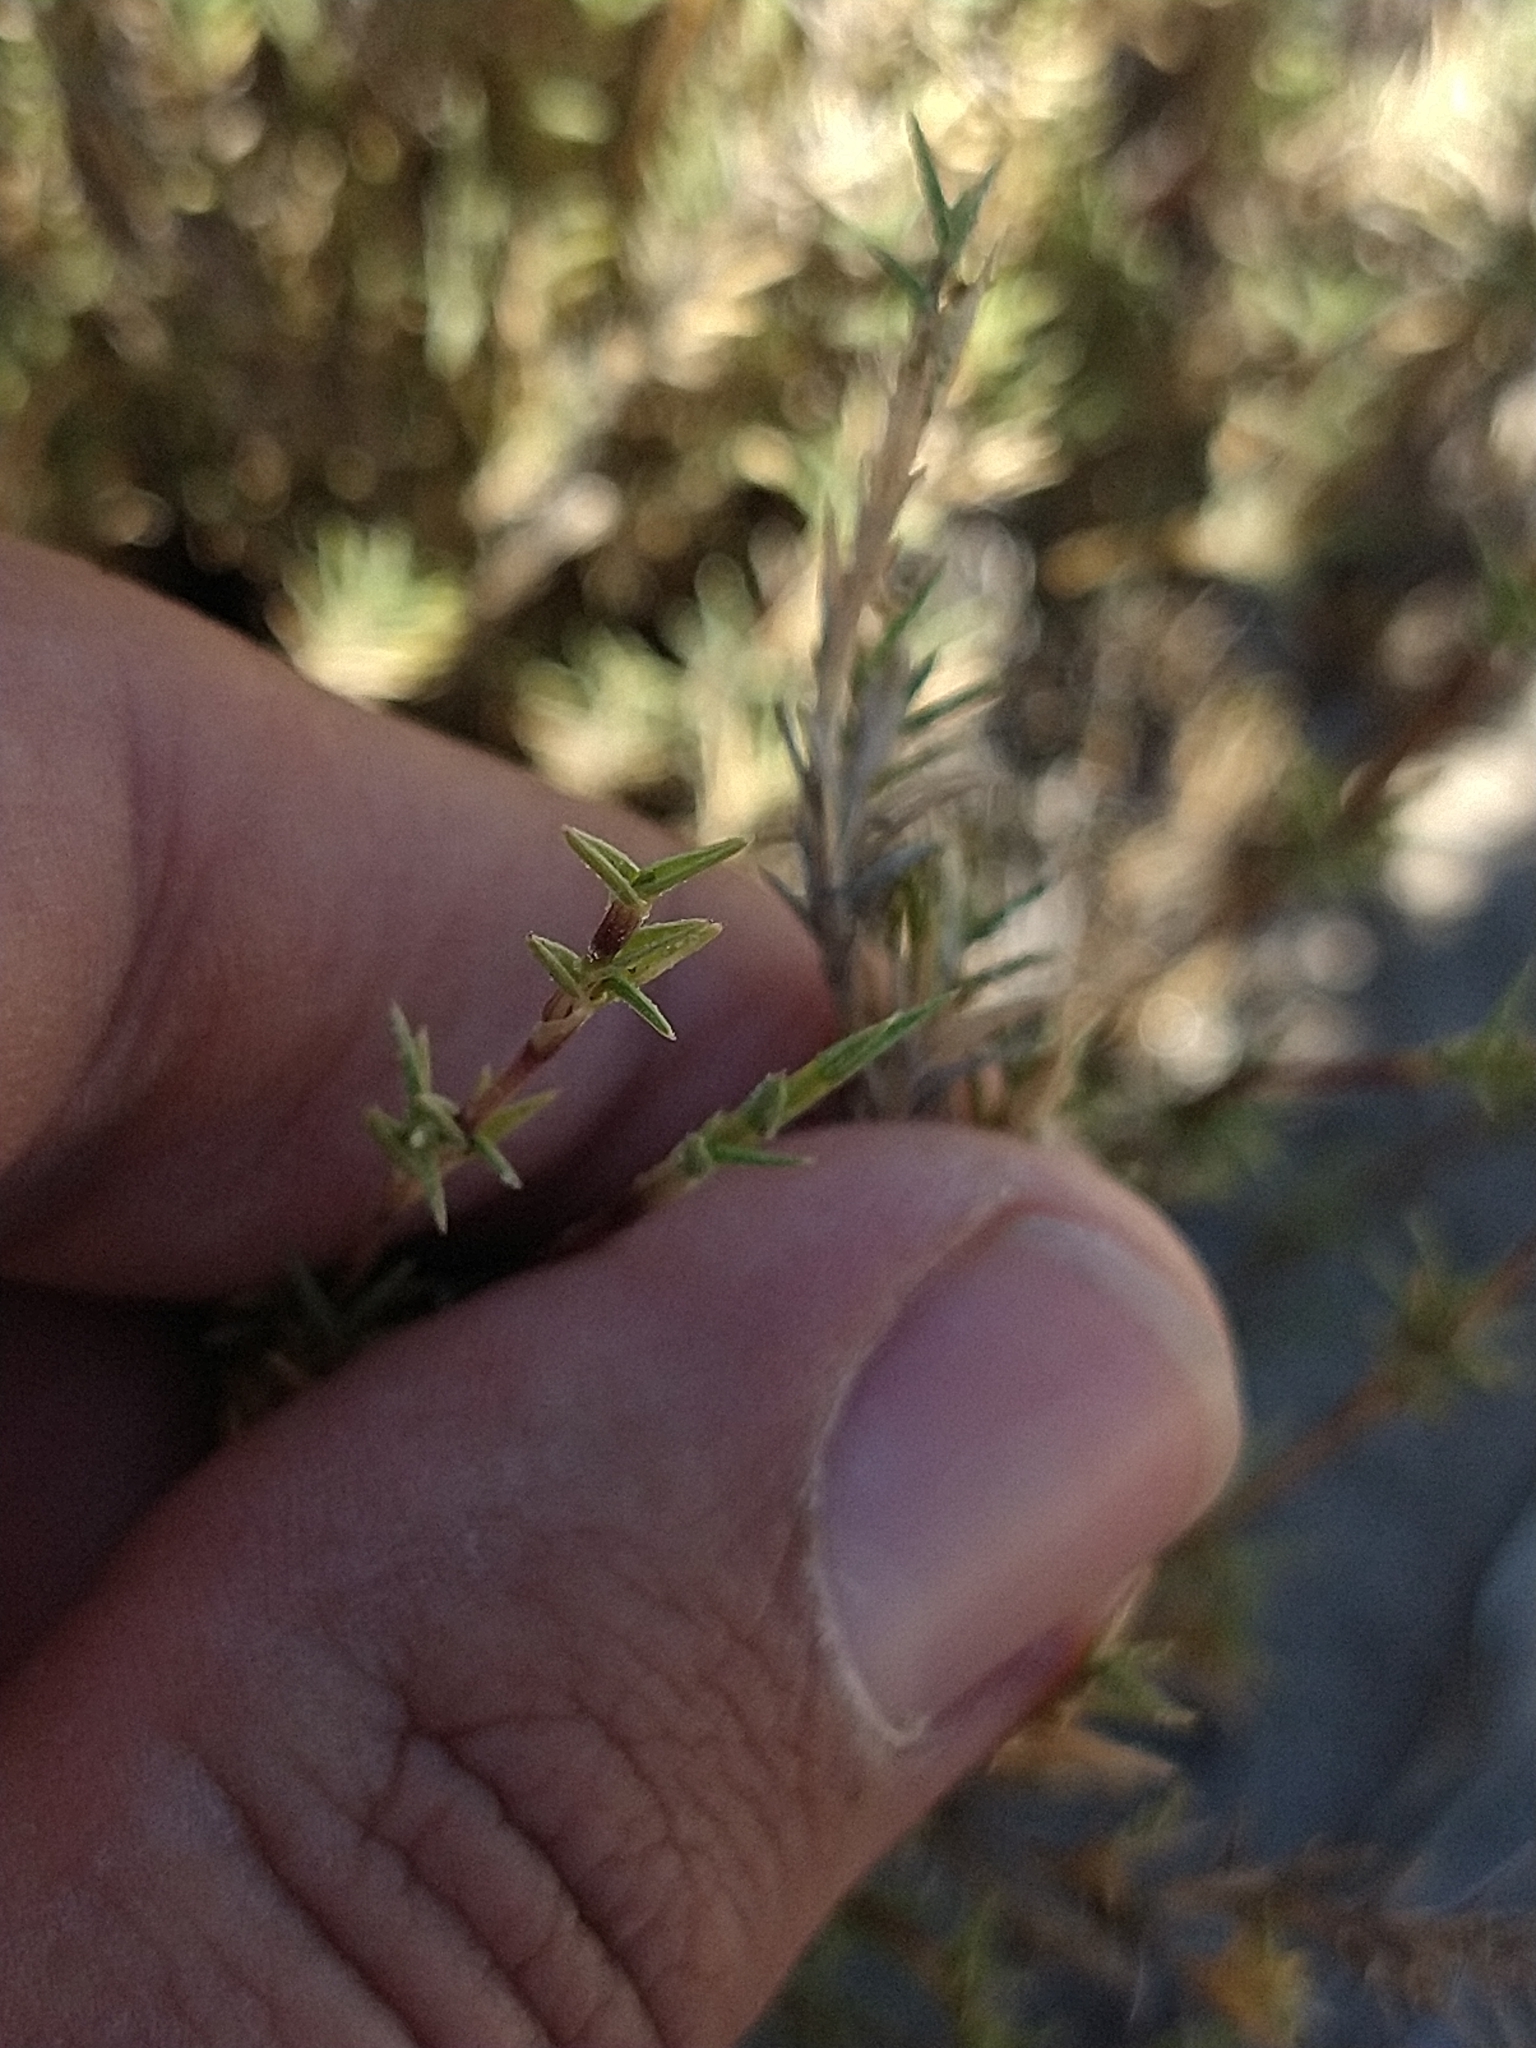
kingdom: Plantae
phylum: Tracheophyta
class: Liliopsida
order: Poales
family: Poaceae
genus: Distichlis
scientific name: Distichlis littoralis
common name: Shore grass
